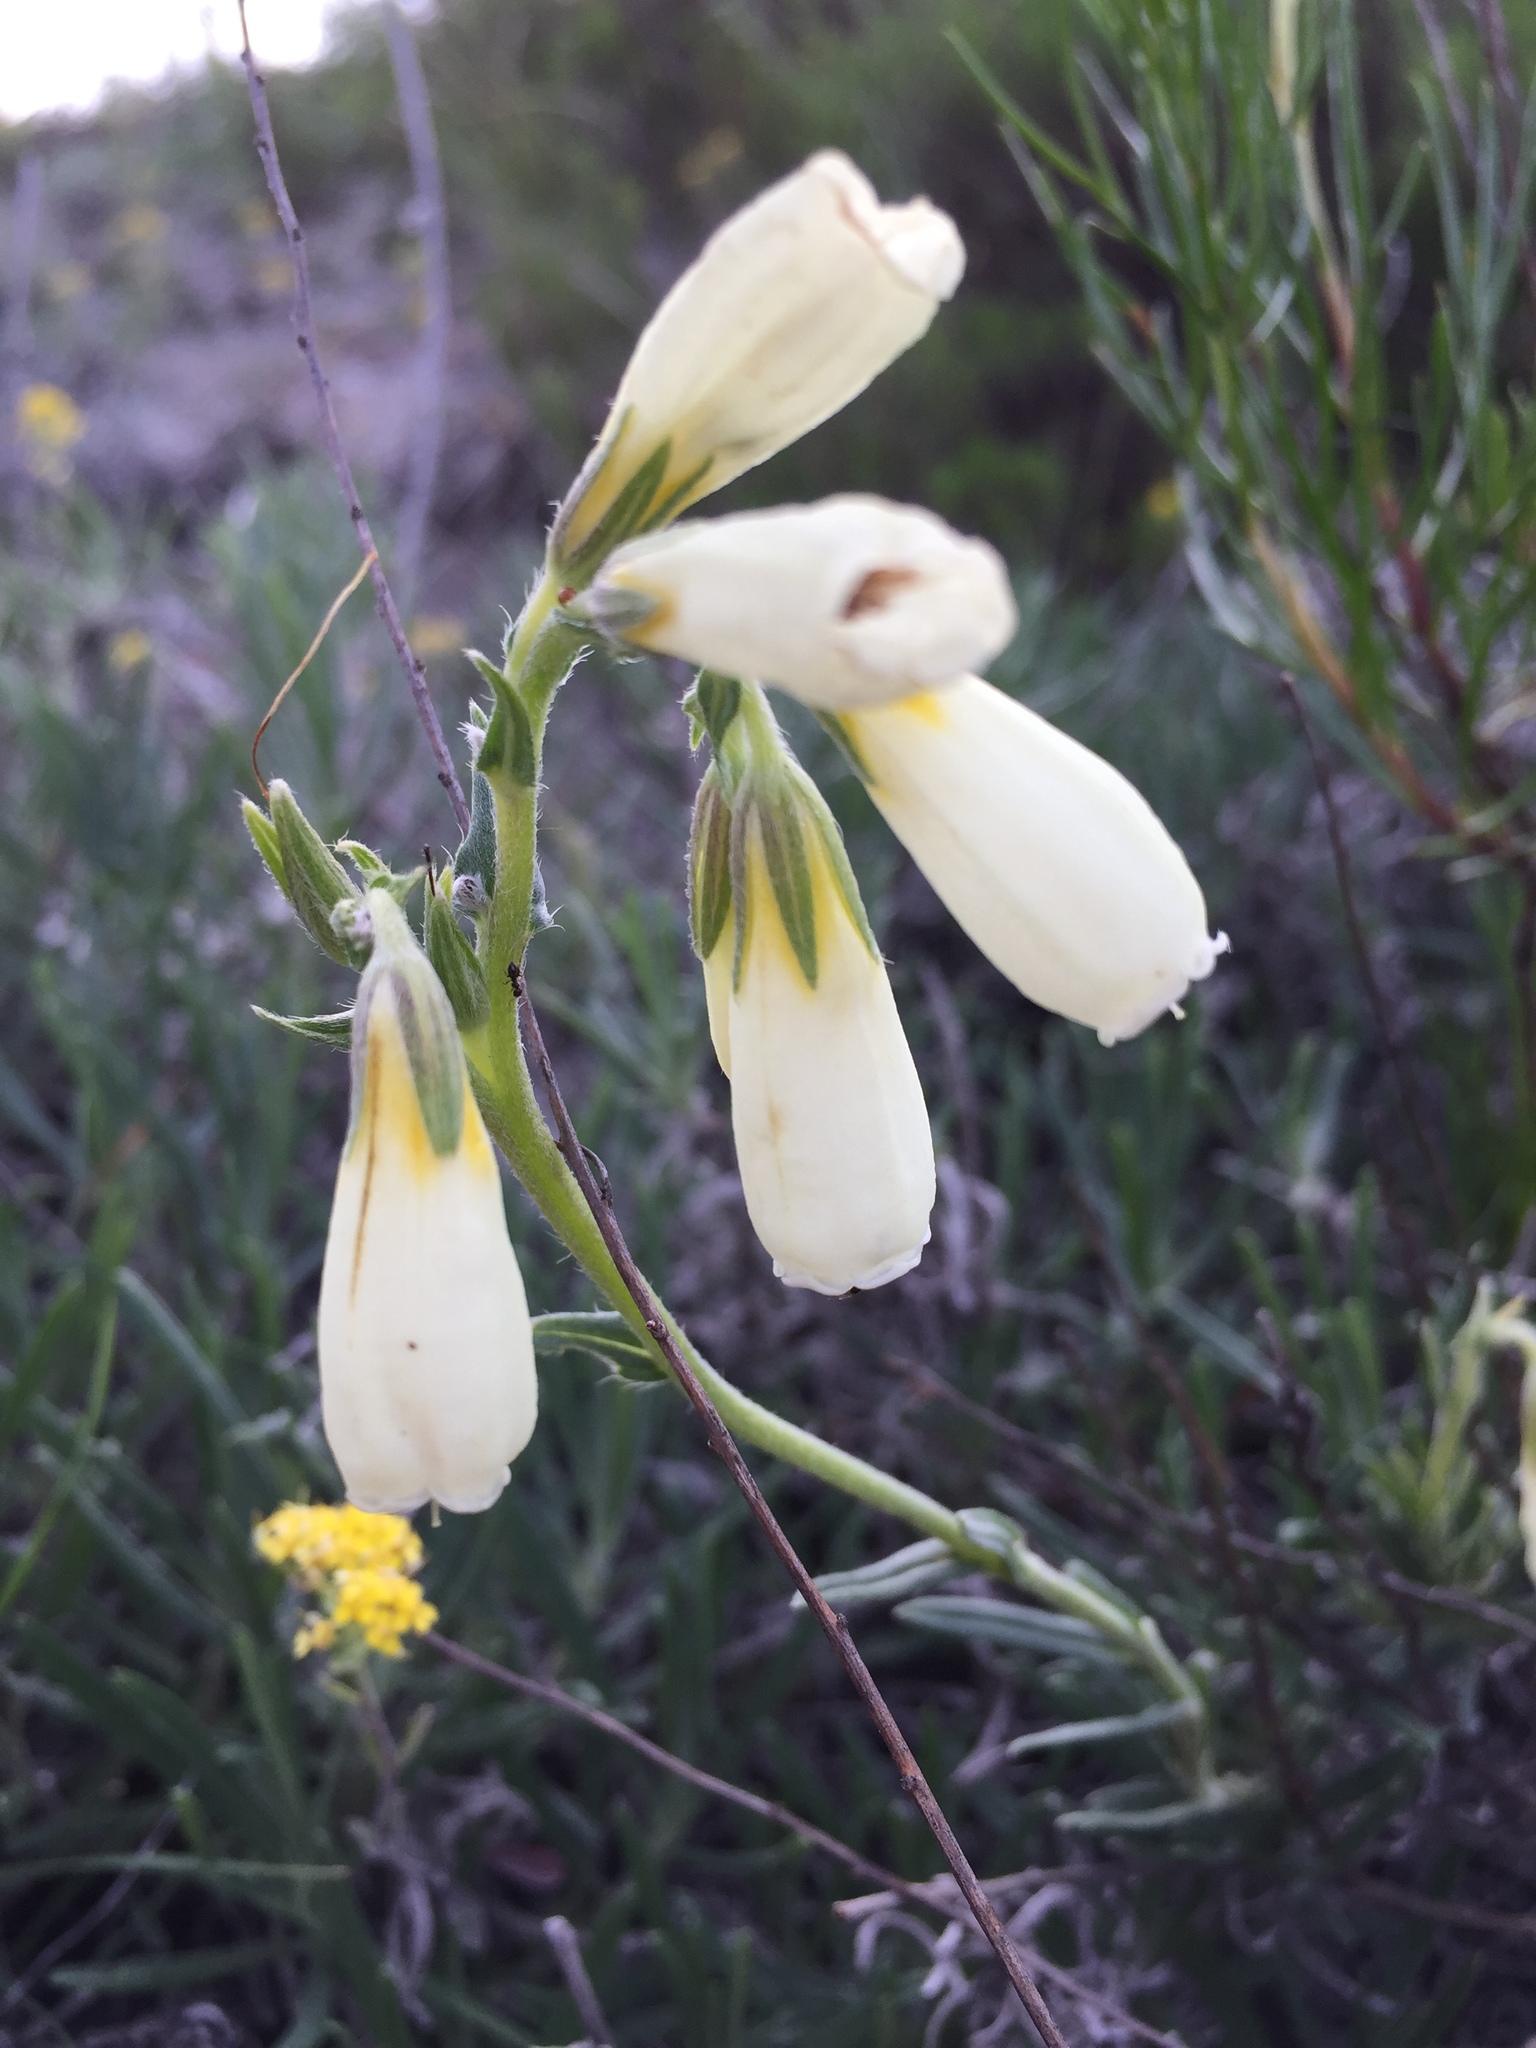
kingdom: Plantae
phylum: Tracheophyta
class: Magnoliopsida
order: Boraginales
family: Boraginaceae
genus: Onosma
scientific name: Onosma simplicissima
